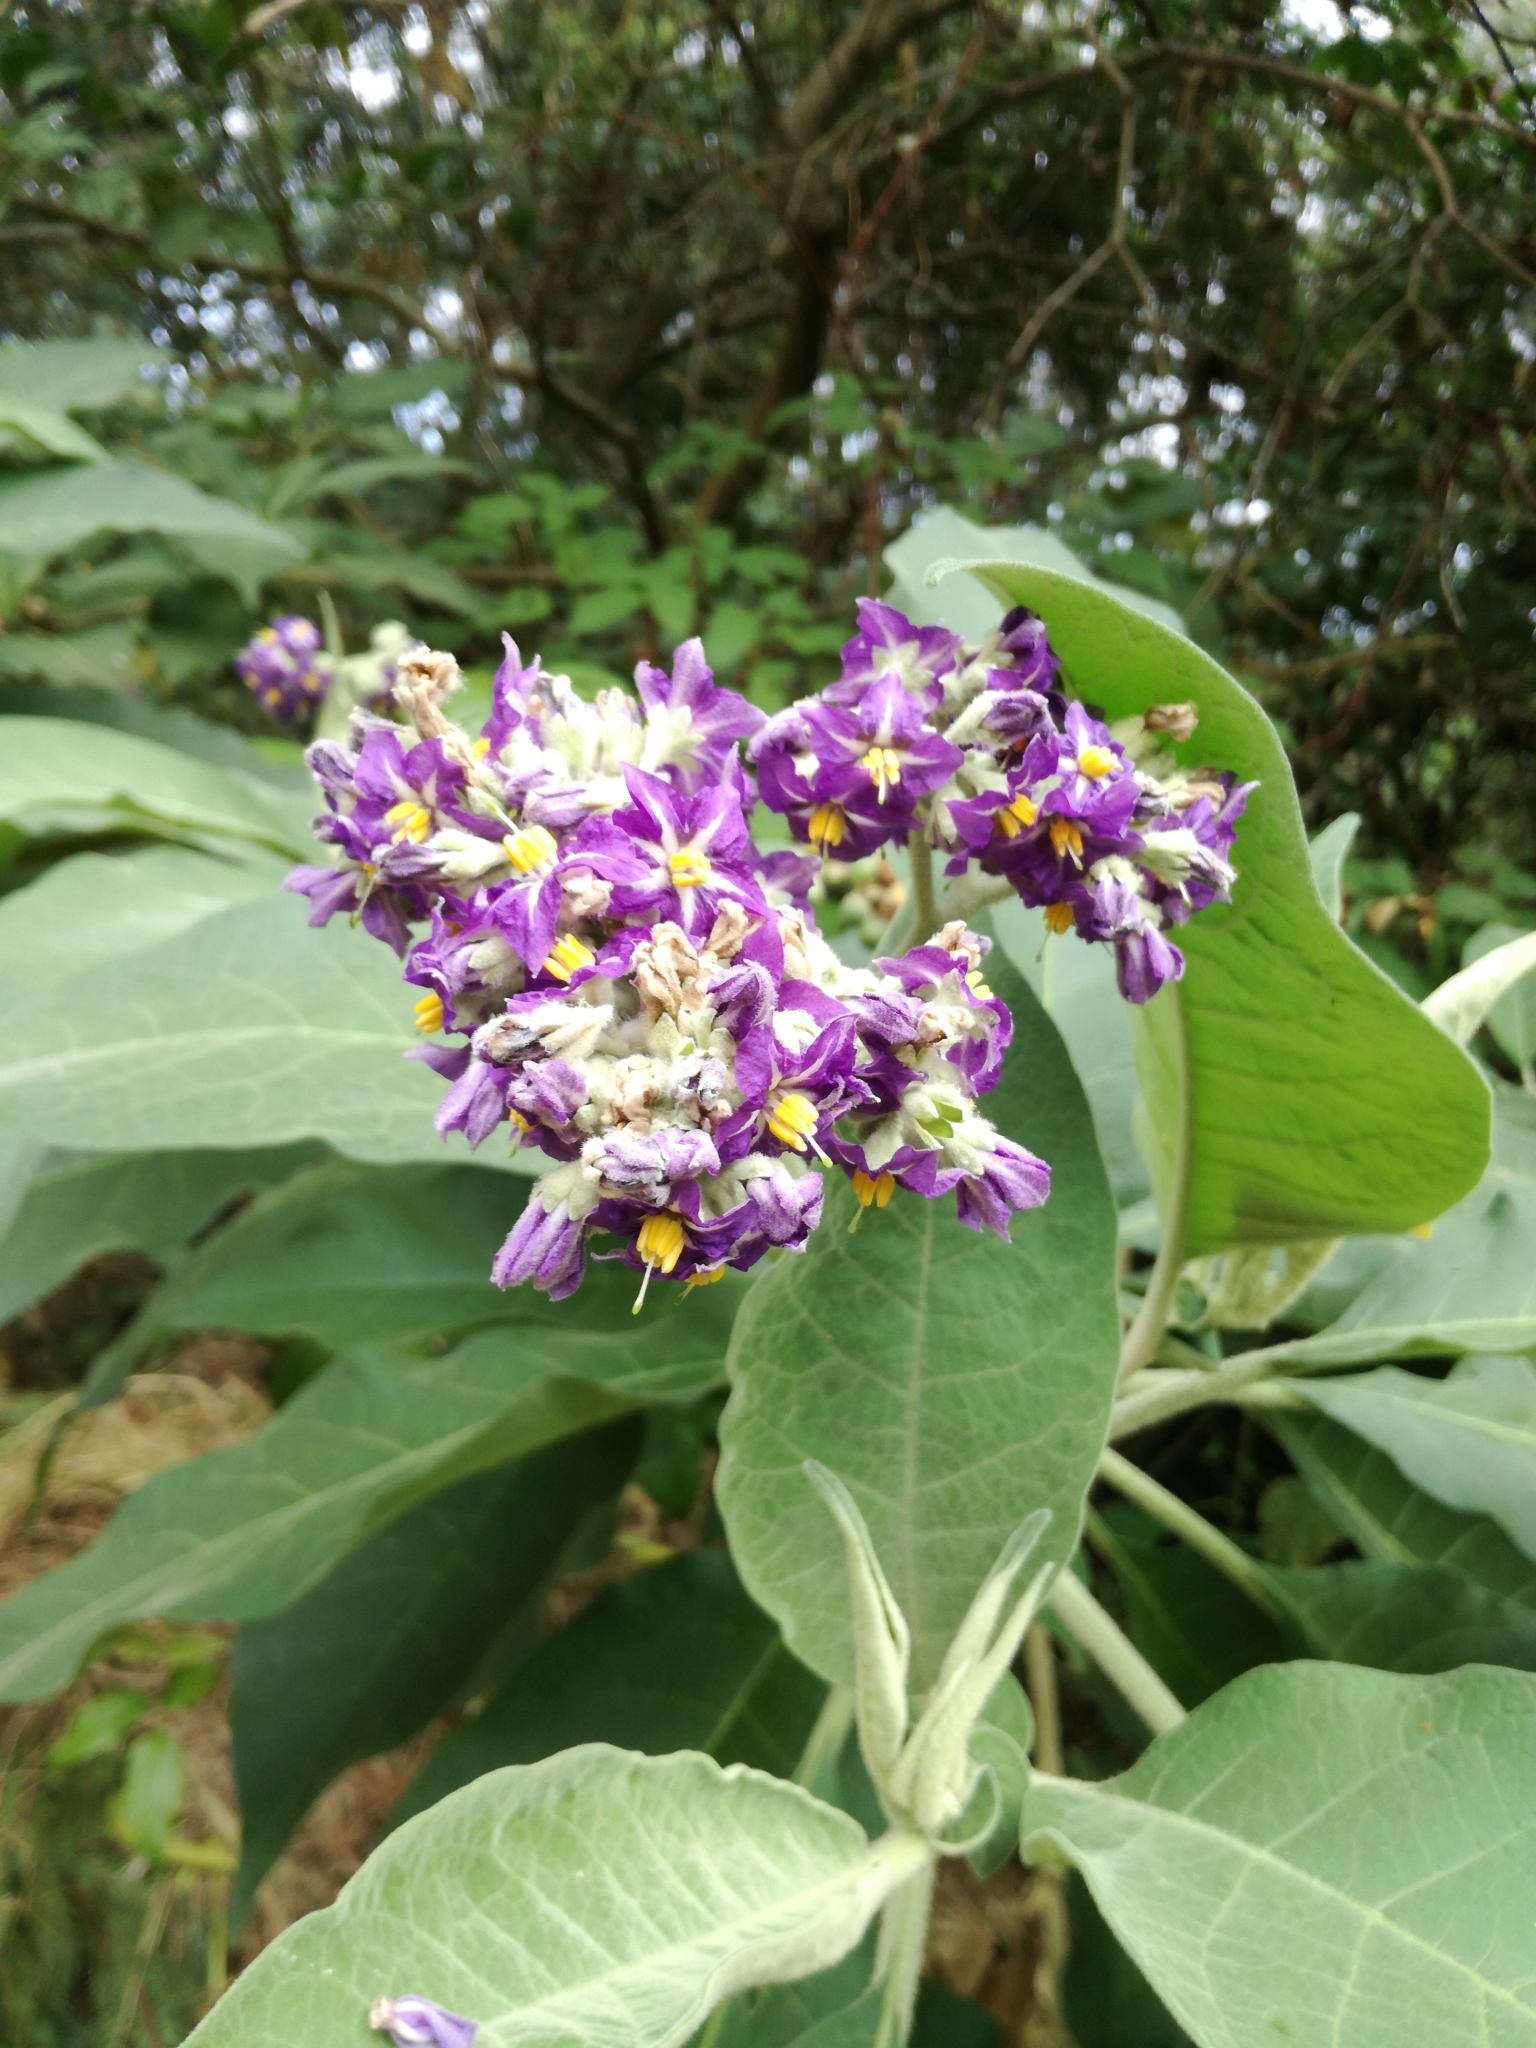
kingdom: Plantae
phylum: Tracheophyta
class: Magnoliopsida
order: Solanales
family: Solanaceae
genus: Solanum
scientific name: Solanum mauritianum
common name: Earleaf nightshade
